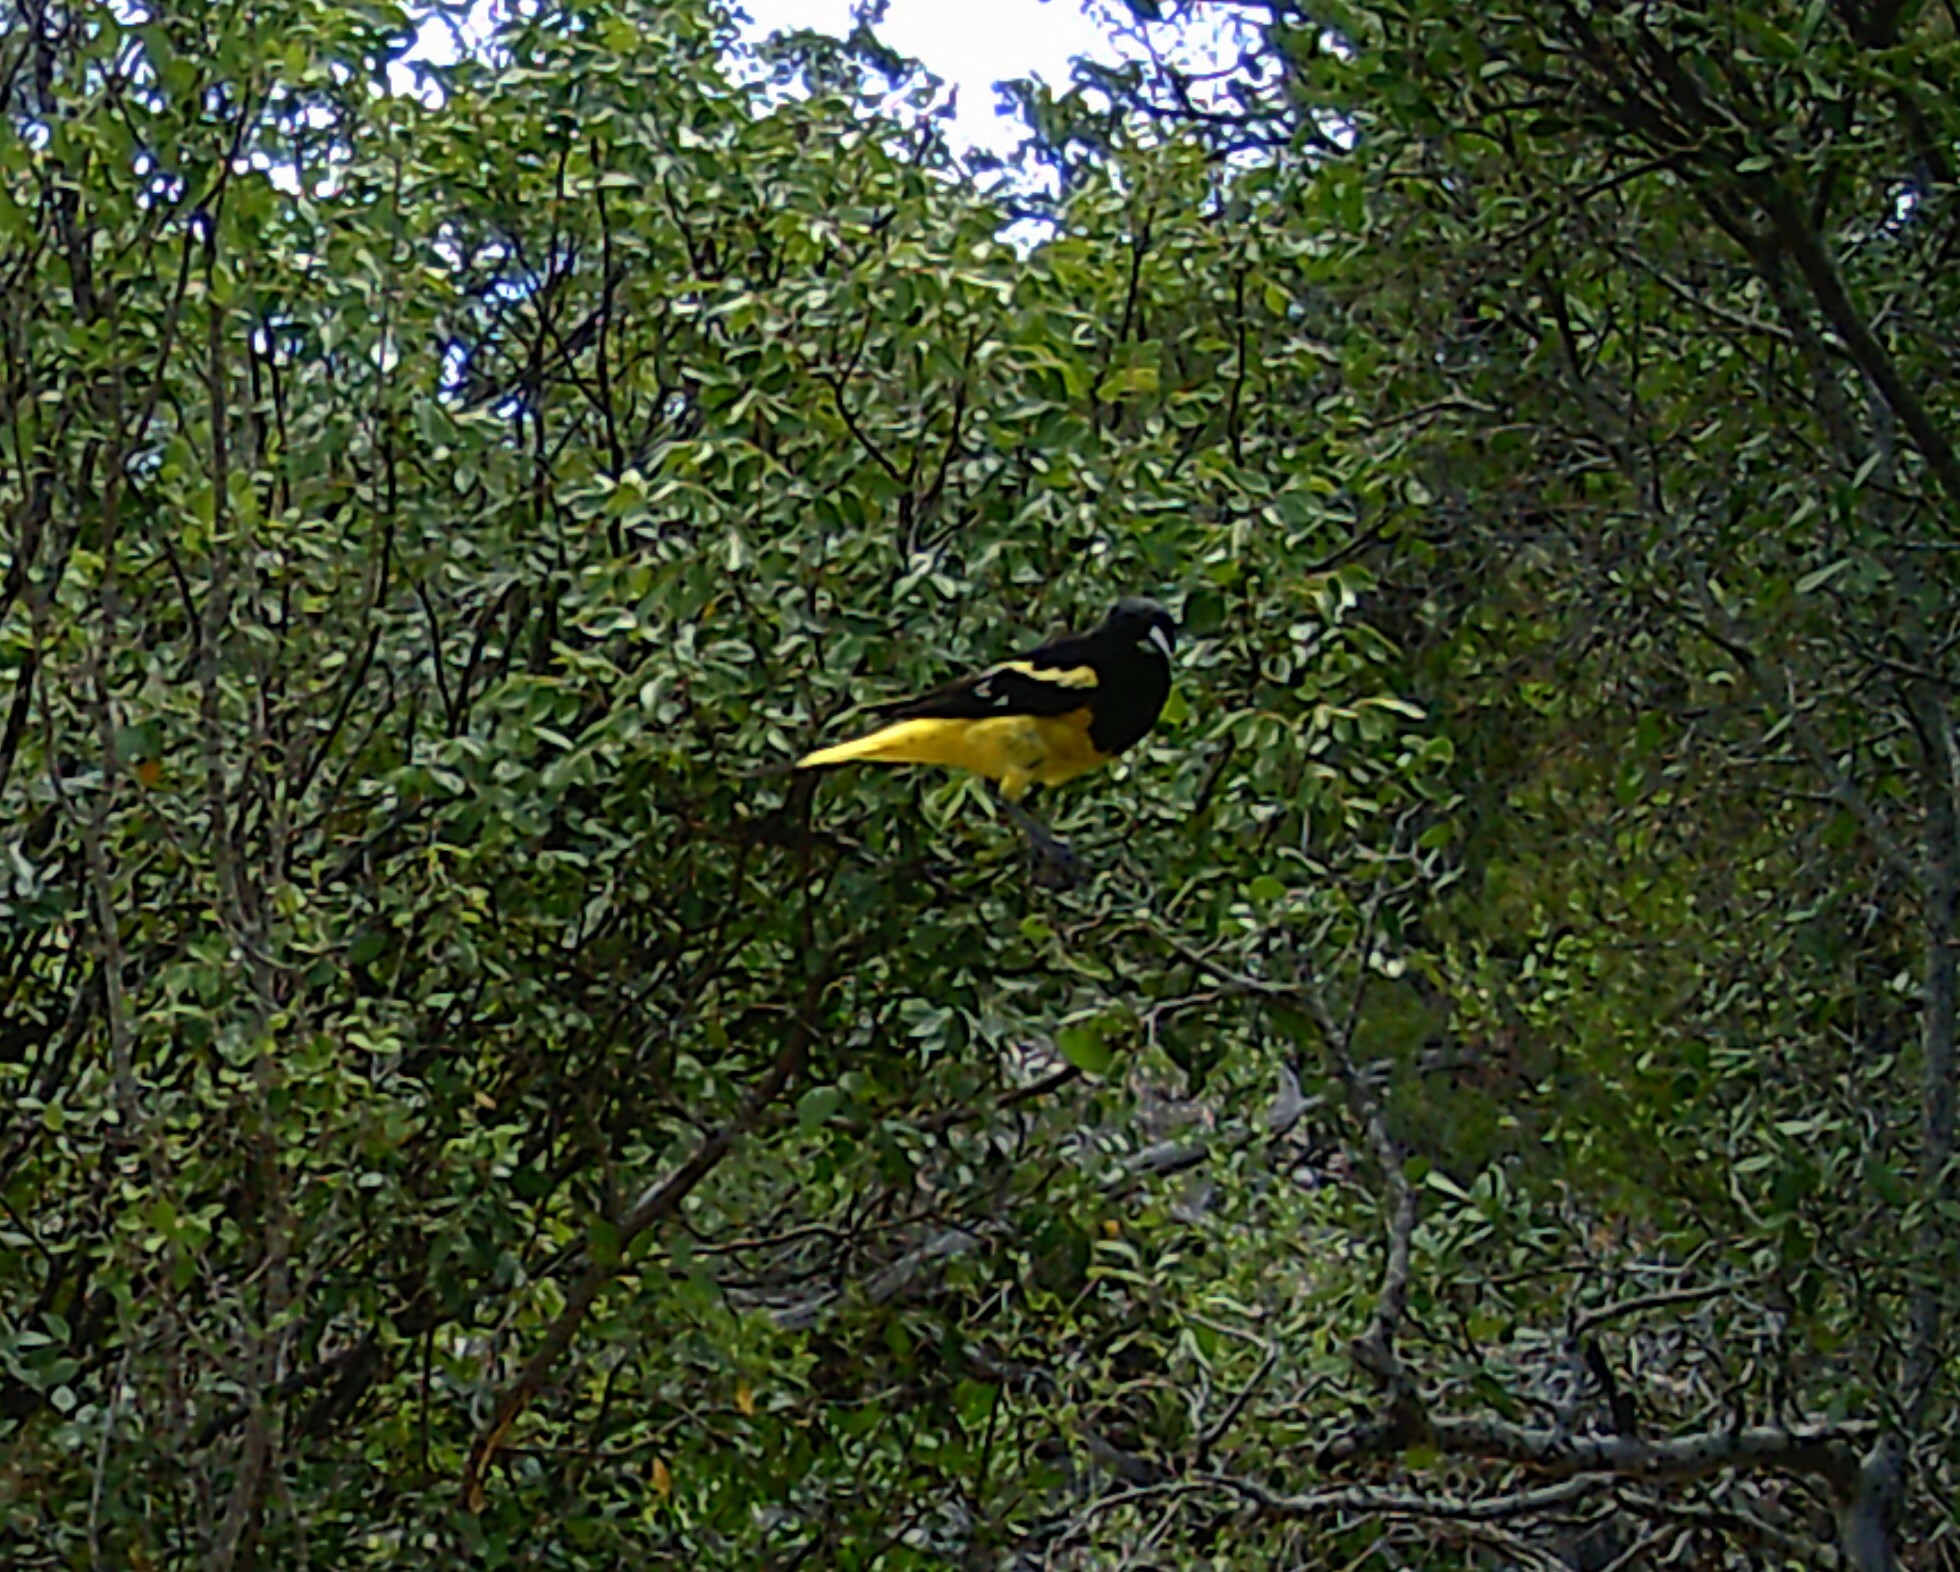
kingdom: Animalia
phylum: Chordata
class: Aves
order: Passeriformes
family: Icteridae
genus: Icterus
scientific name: Icterus parisorum
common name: Scott's oriole
